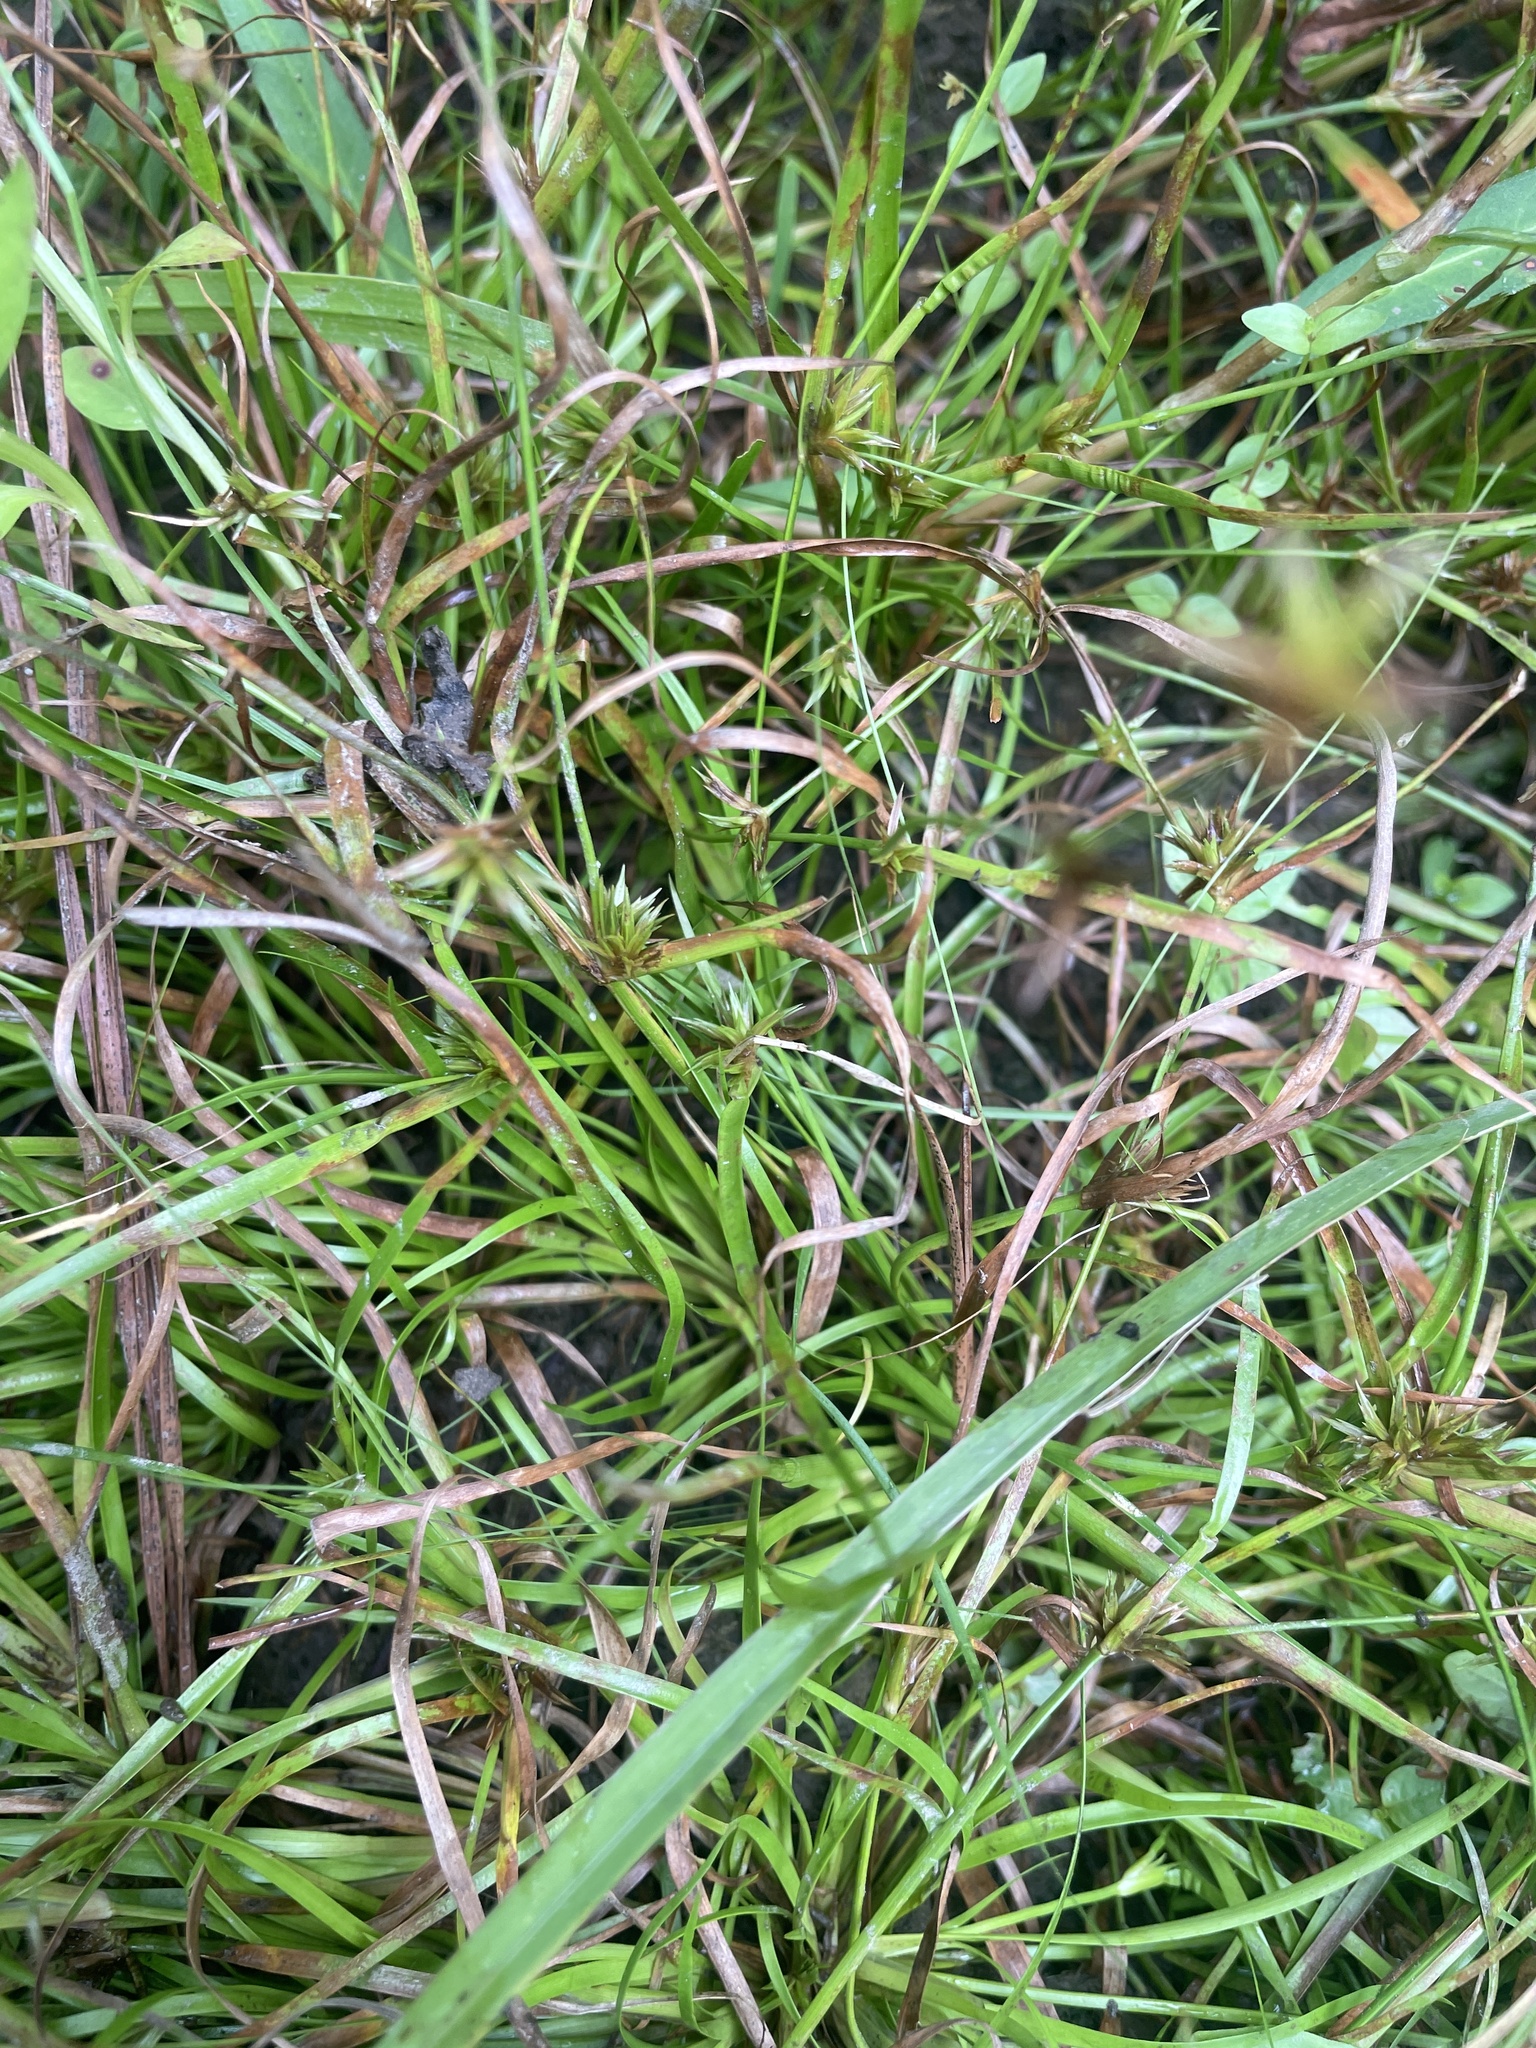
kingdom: Plantae
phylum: Tracheophyta
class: Liliopsida
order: Poales
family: Juncaceae
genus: Juncus
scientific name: Juncus repens
